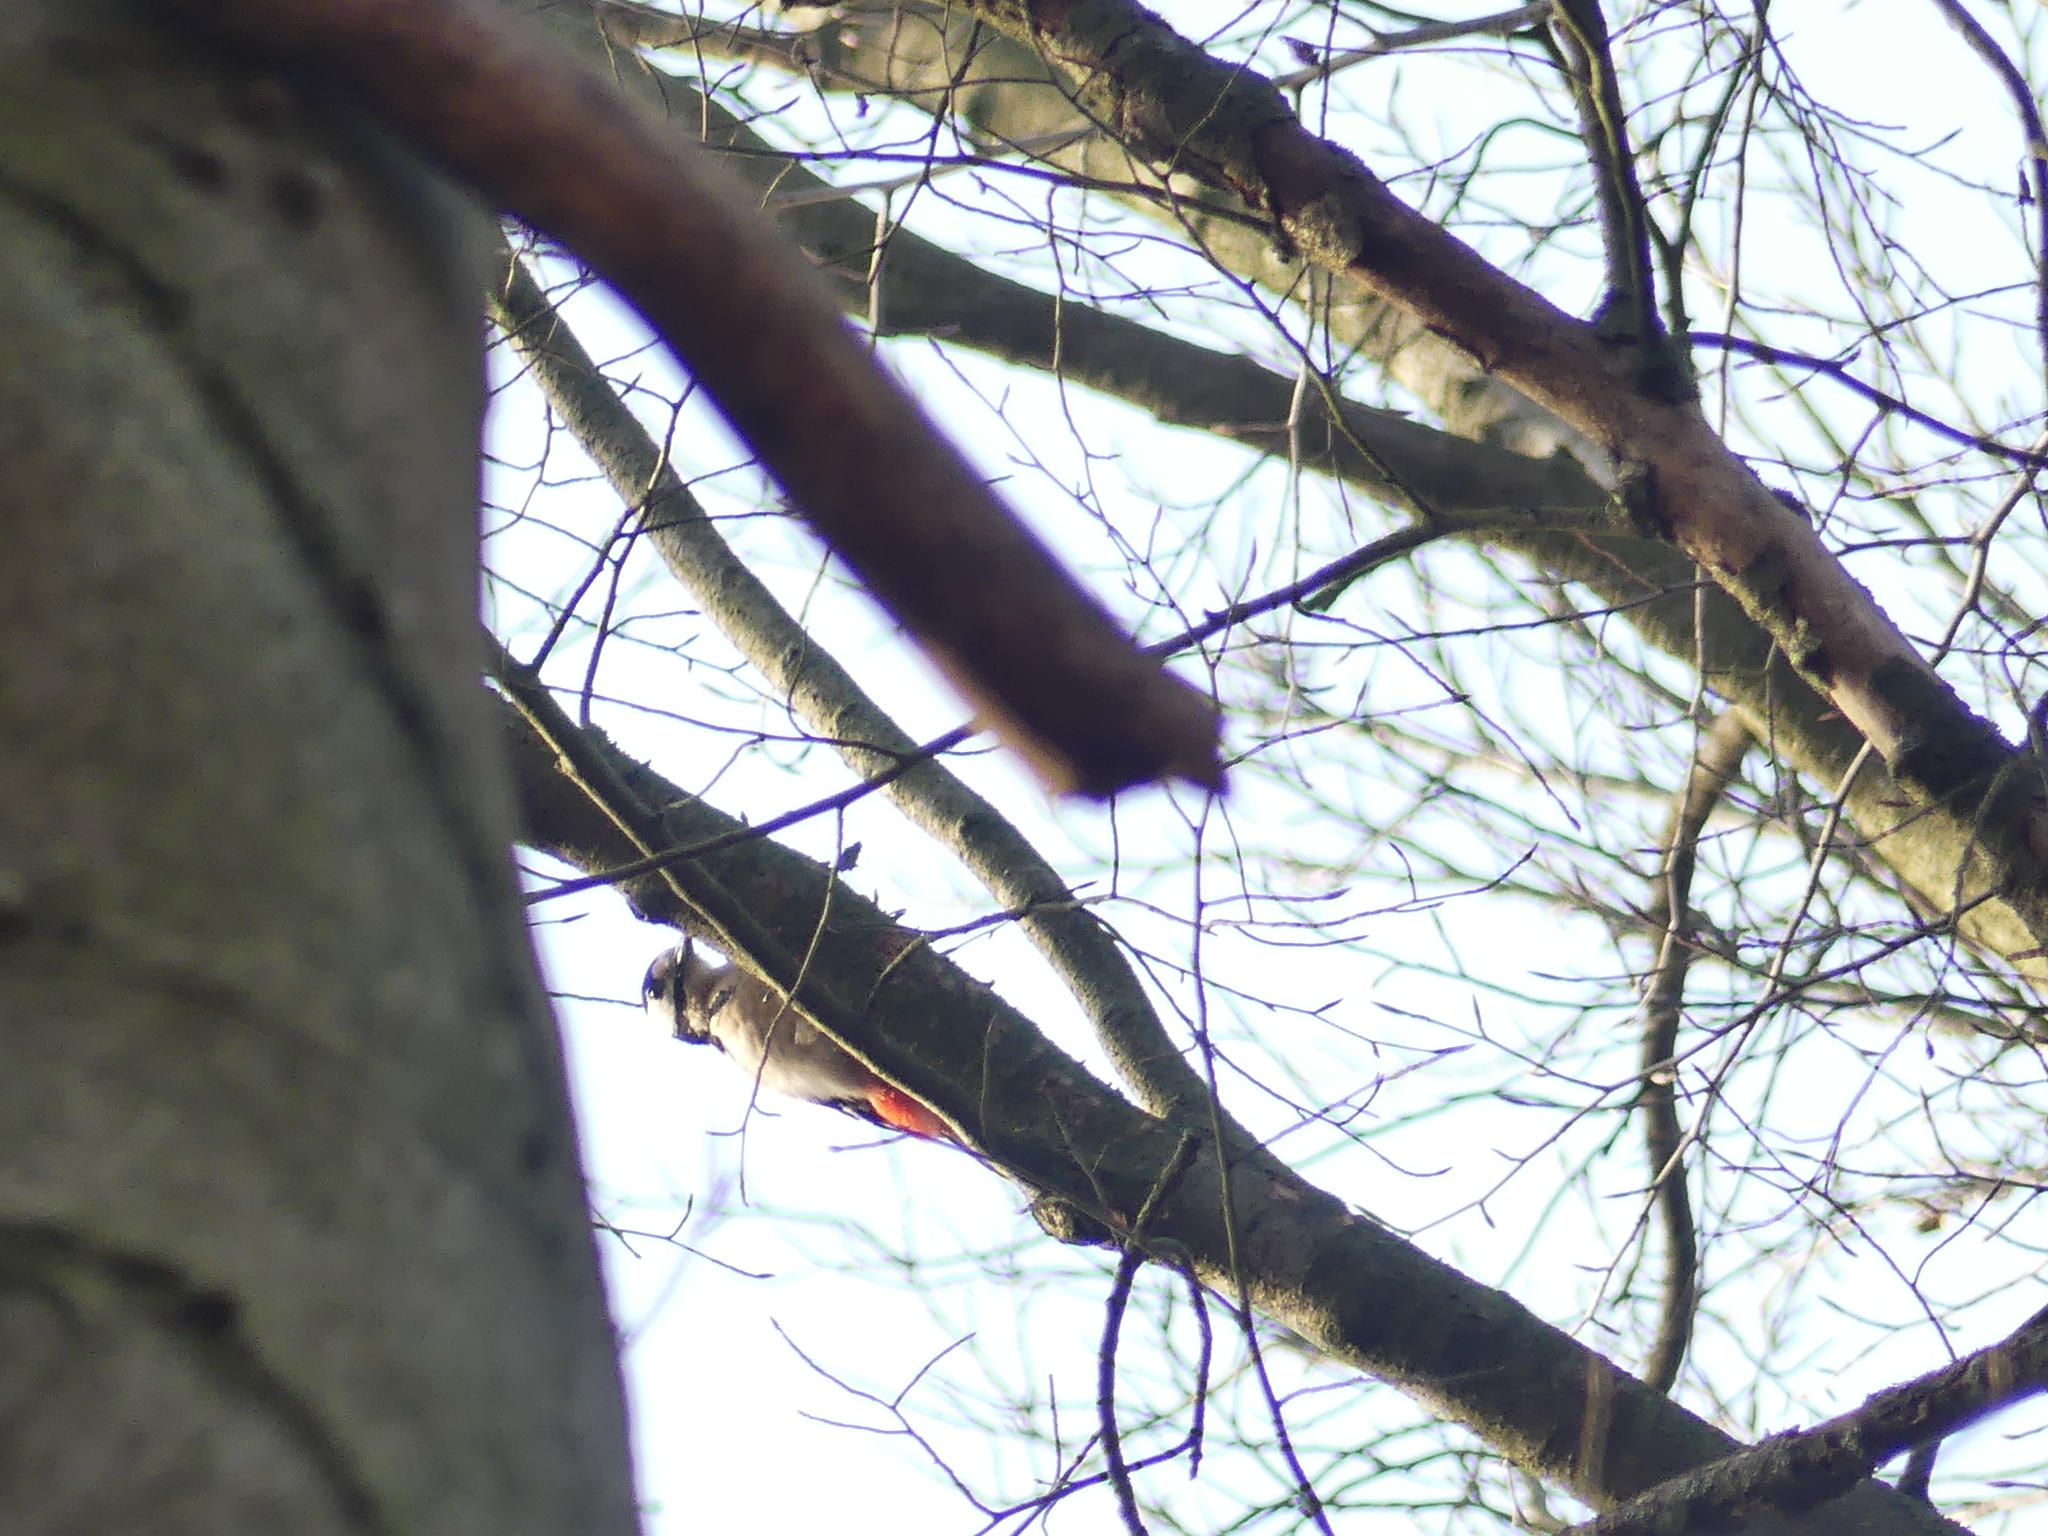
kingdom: Animalia
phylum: Chordata
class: Aves
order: Piciformes
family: Picidae
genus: Dendrocopos
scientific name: Dendrocopos major
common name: Great spotted woodpecker
